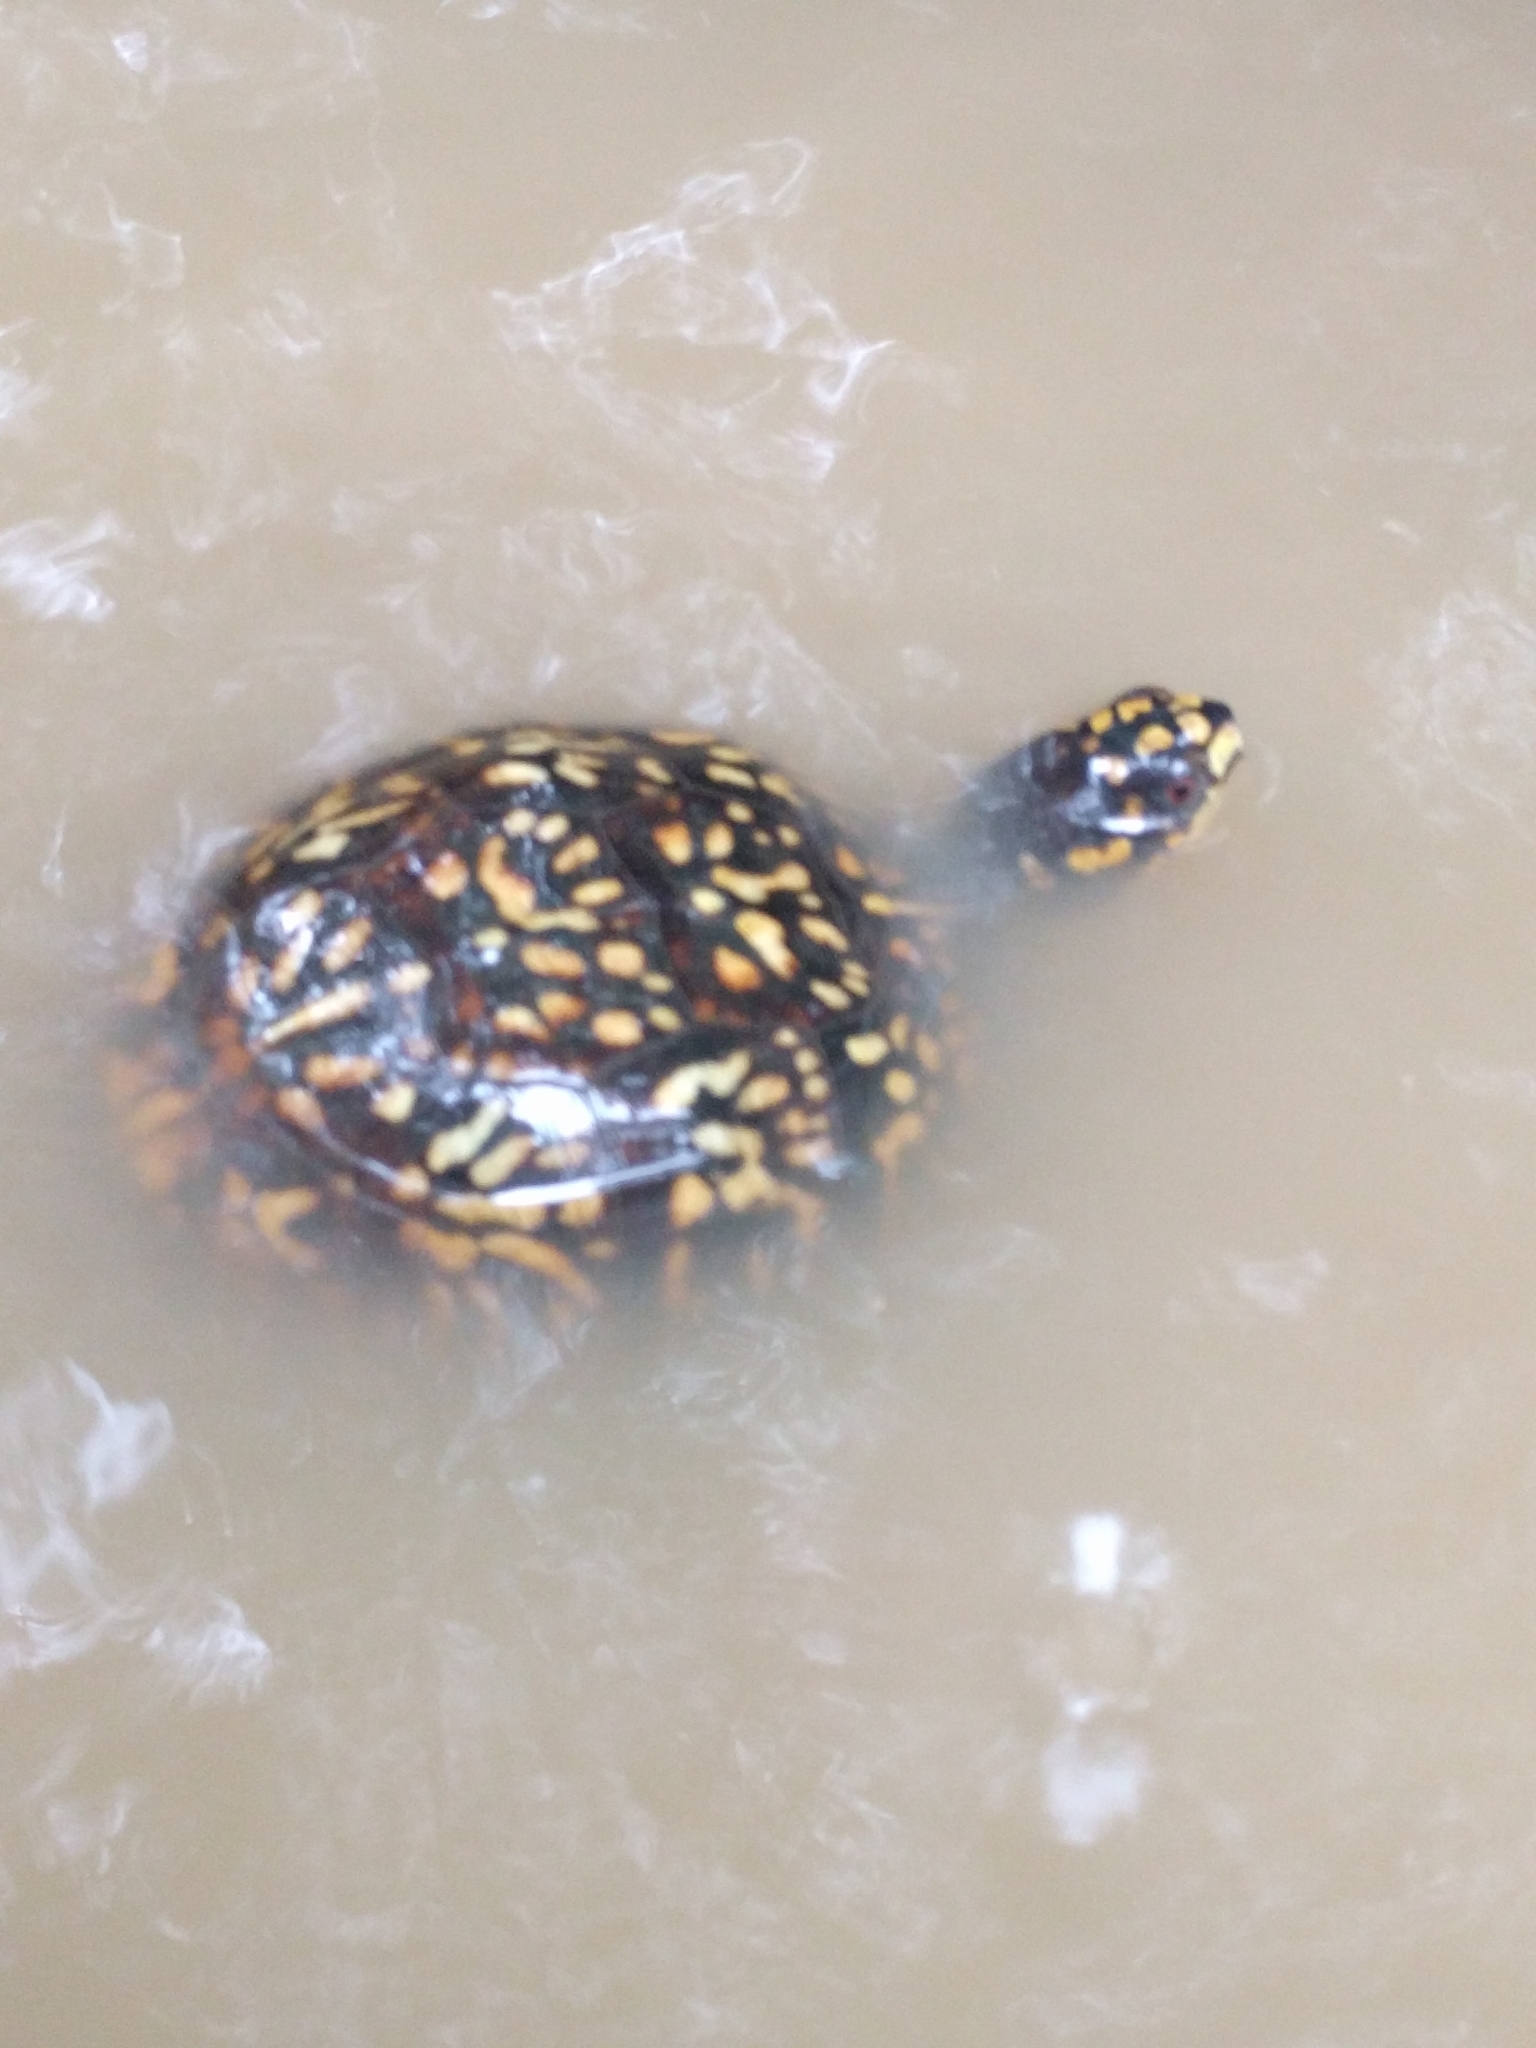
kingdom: Animalia
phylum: Chordata
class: Testudines
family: Emydidae
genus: Terrapene
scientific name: Terrapene carolina
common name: Common box turtle
